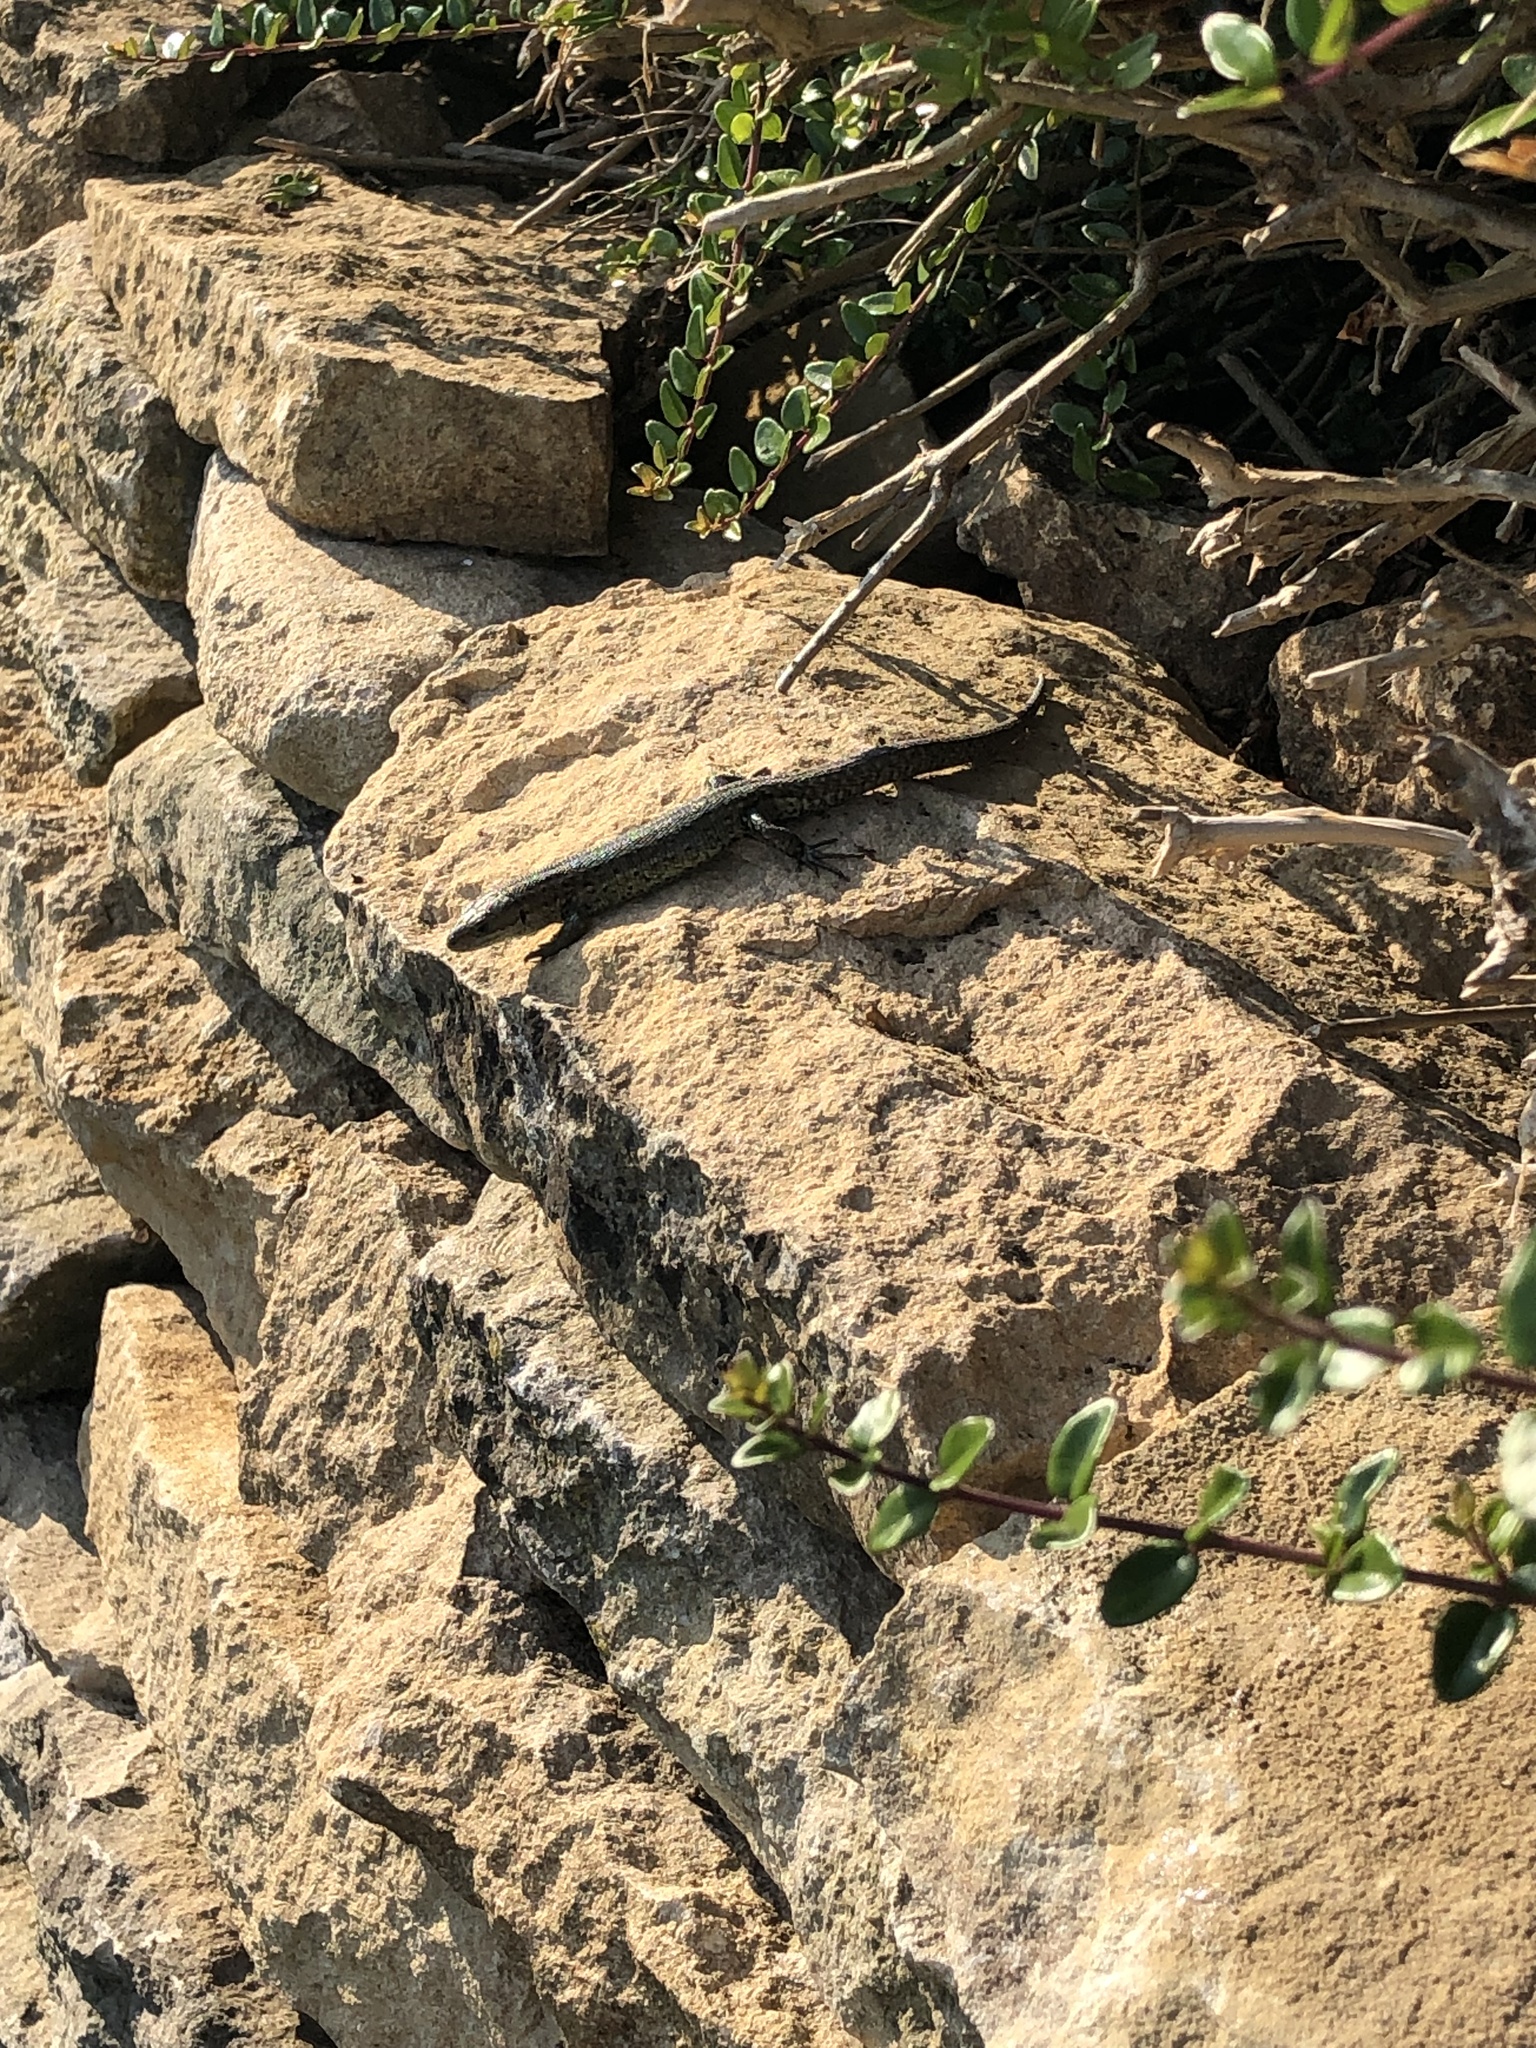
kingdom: Animalia
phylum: Chordata
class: Squamata
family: Lacertidae
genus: Zootoca
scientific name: Zootoca vivipara
